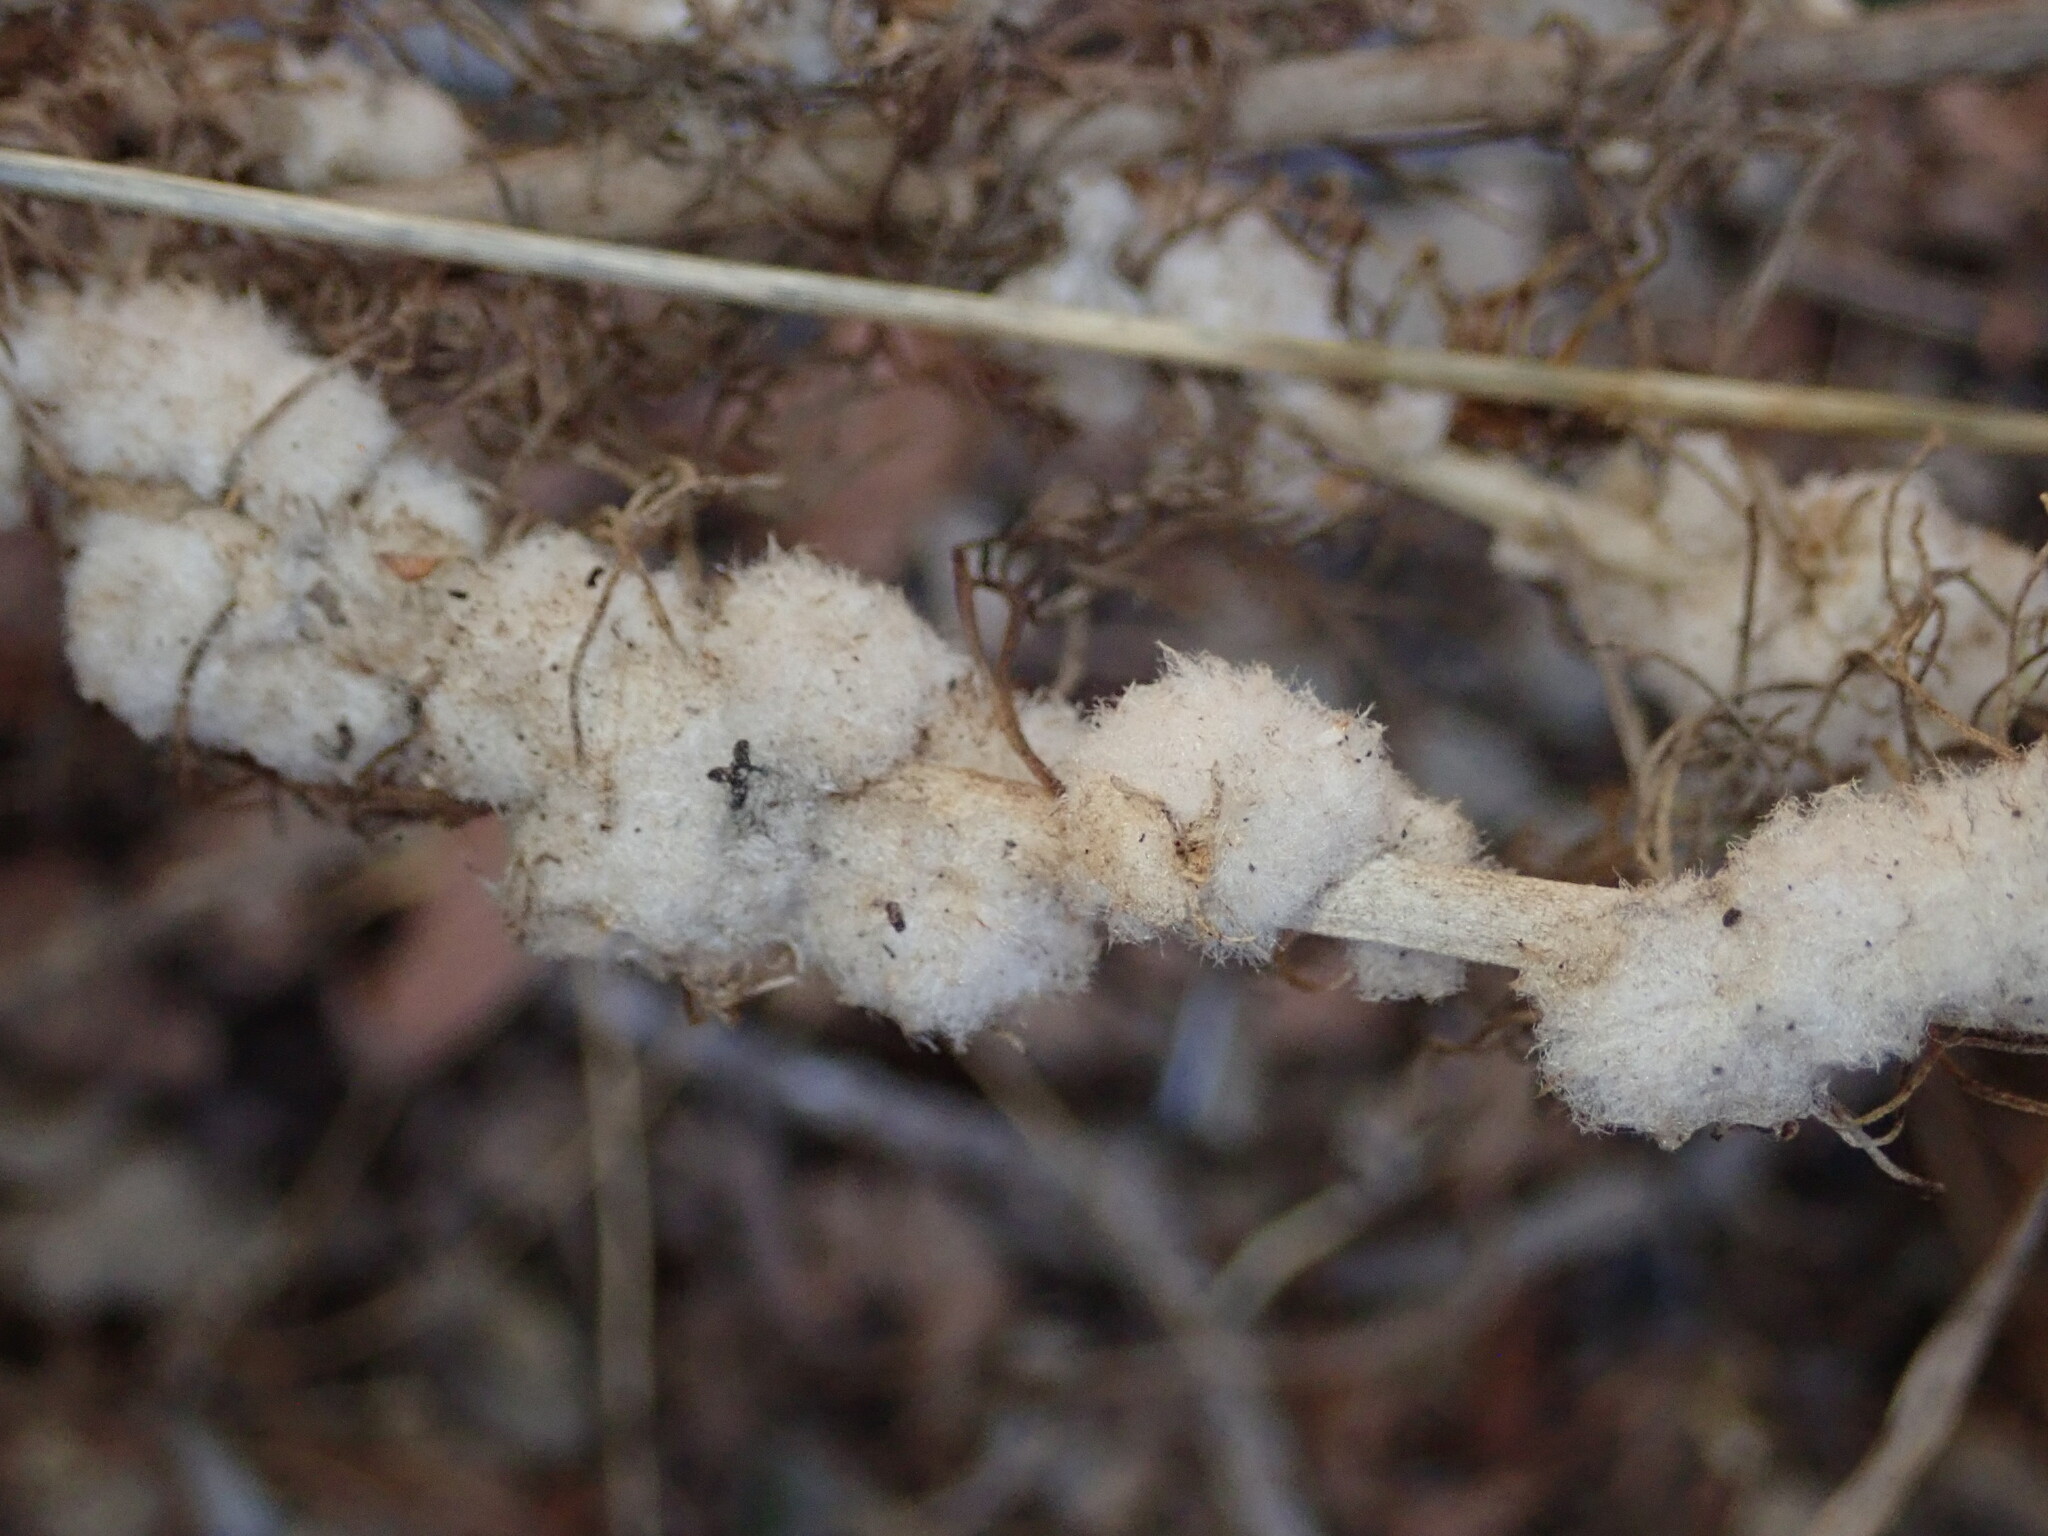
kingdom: Animalia
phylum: Arthropoda
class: Insecta
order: Diptera
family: Cecidomyiidae
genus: Rhopalomyia
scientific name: Rhopalomyia floccosa
